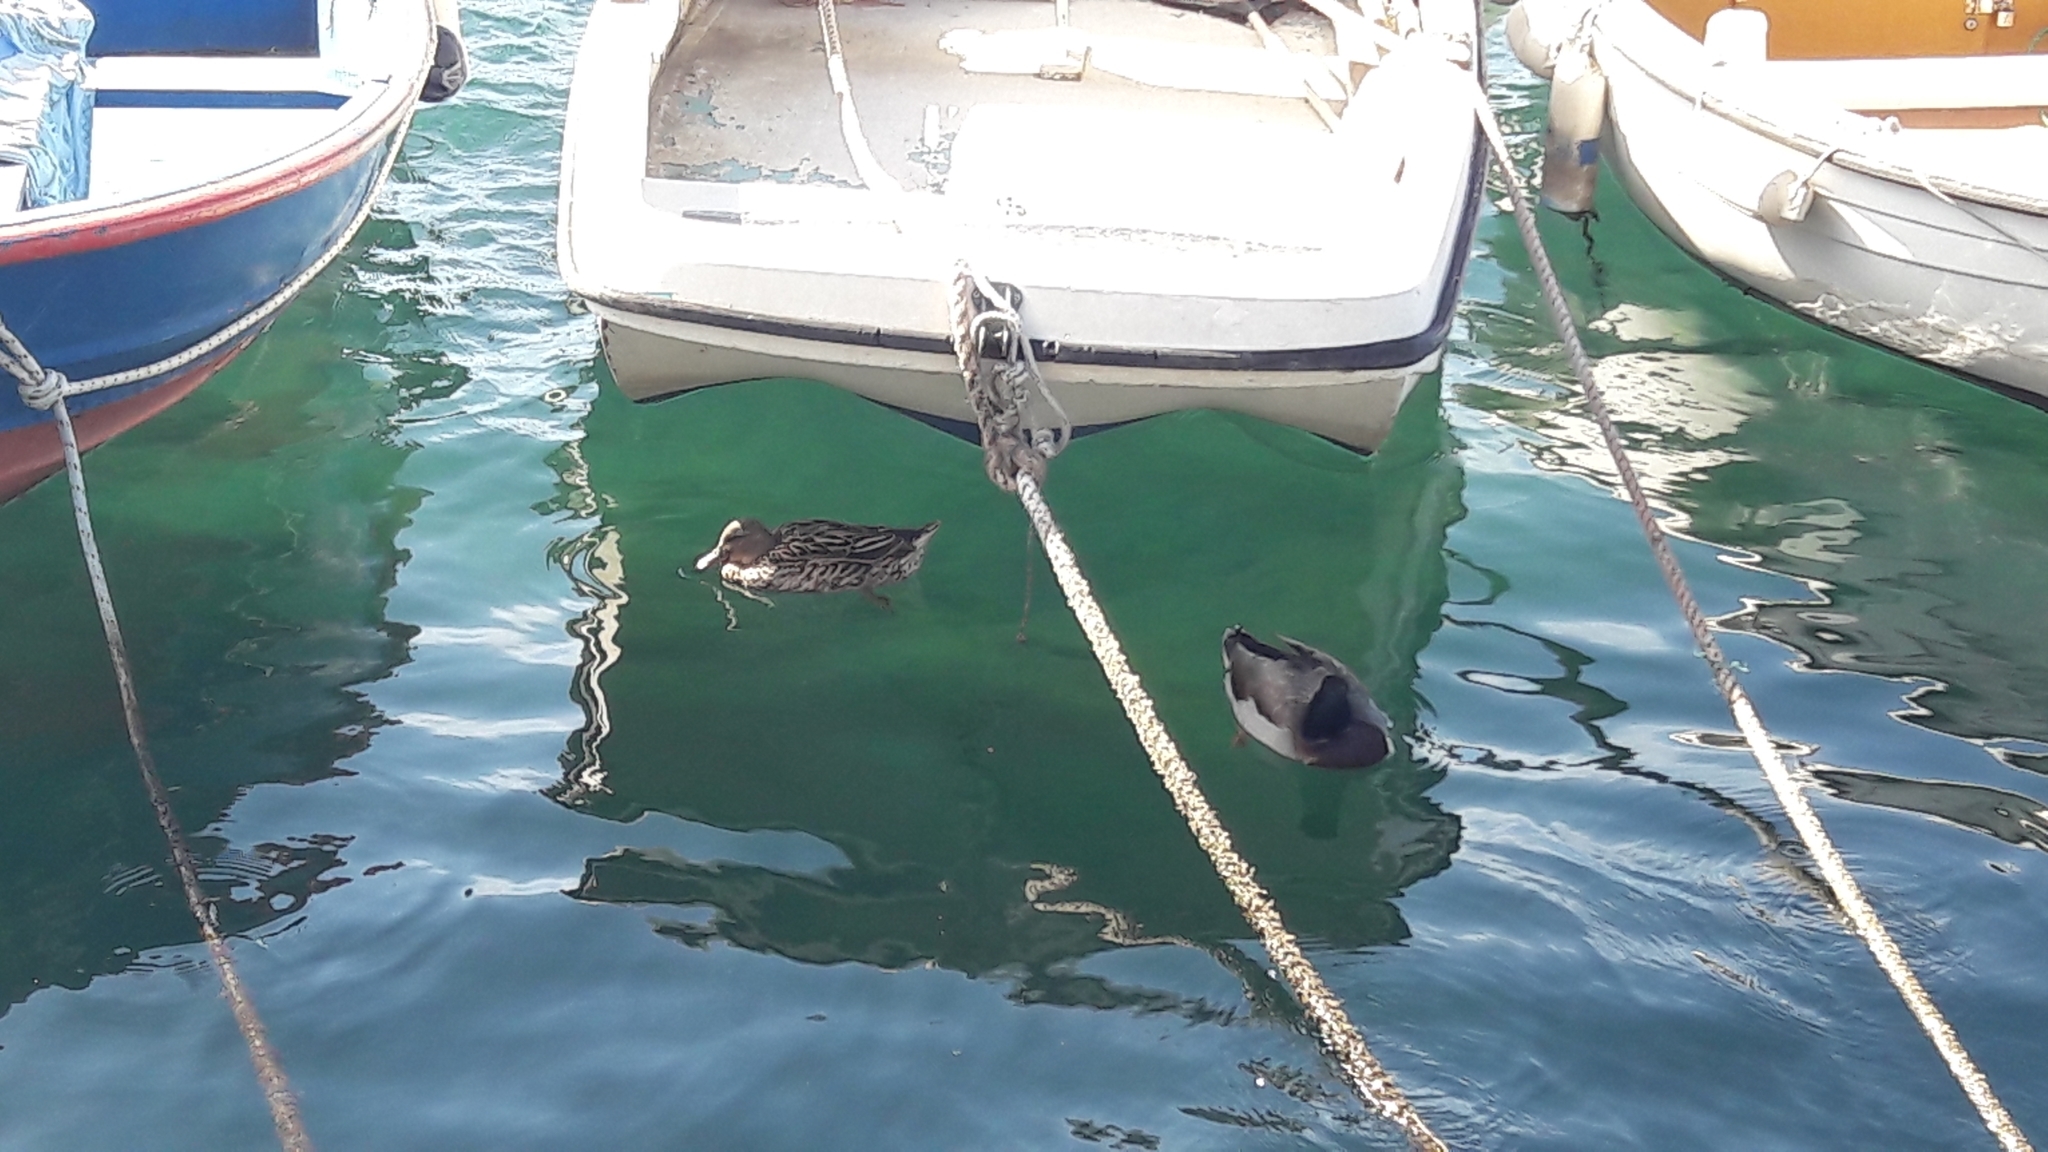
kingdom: Animalia
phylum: Chordata
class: Aves
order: Anseriformes
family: Anatidae
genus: Anas
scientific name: Anas platyrhynchos
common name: Mallard
